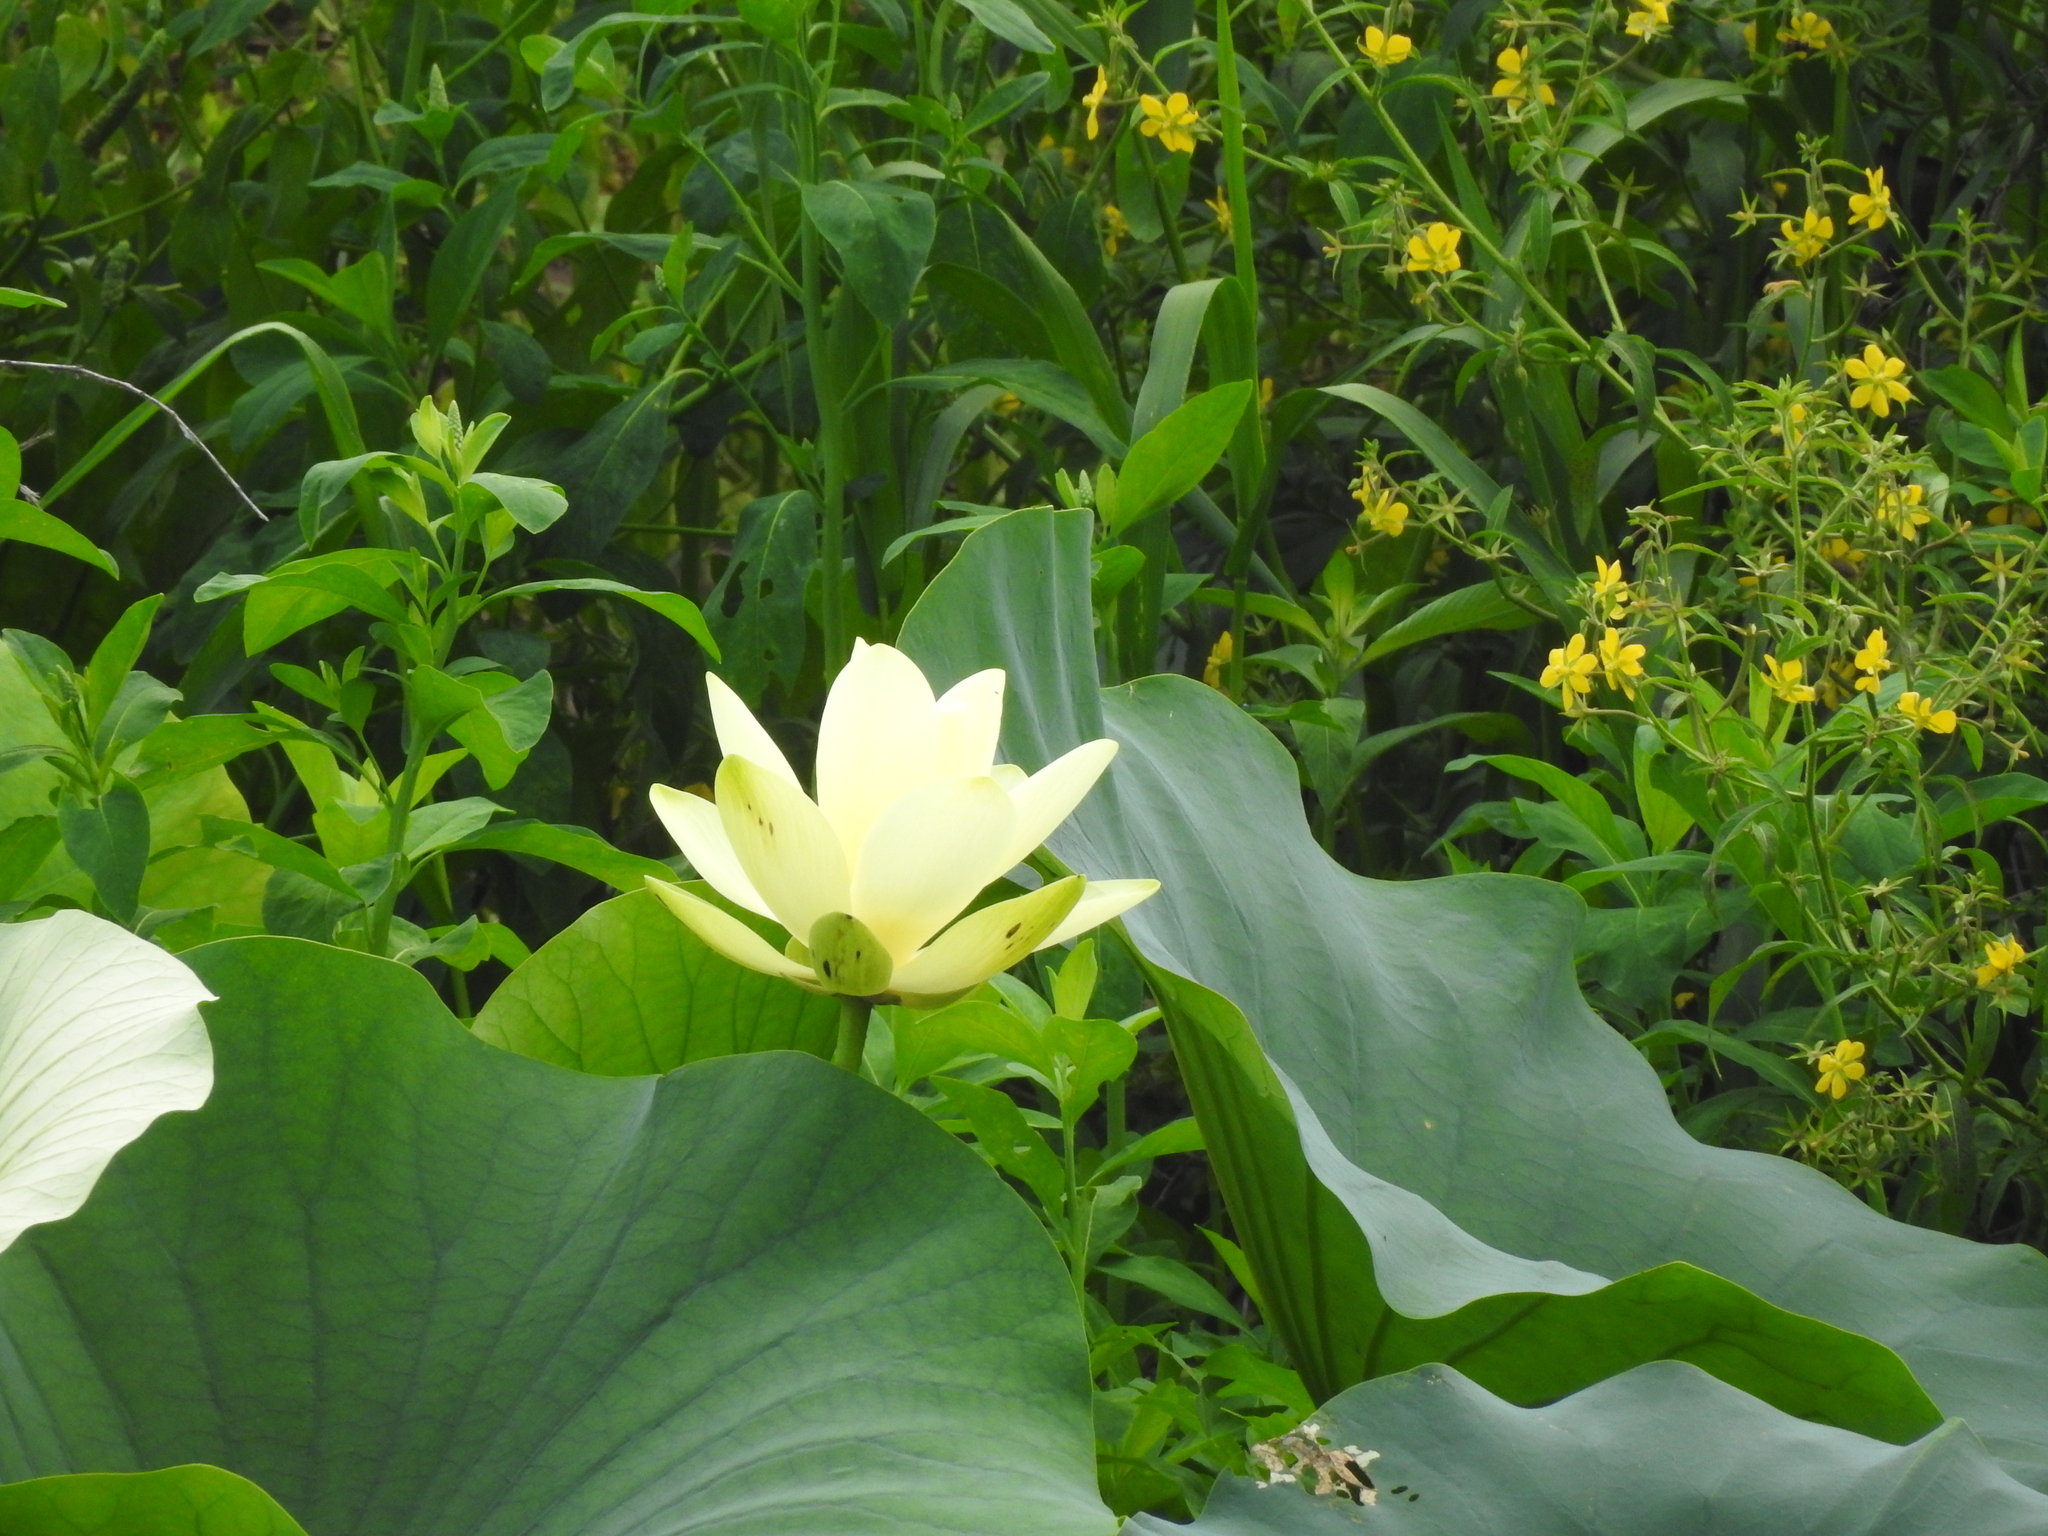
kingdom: Plantae
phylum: Tracheophyta
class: Magnoliopsida
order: Proteales
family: Nelumbonaceae
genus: Nelumbo
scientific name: Nelumbo lutea
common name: American lotus
